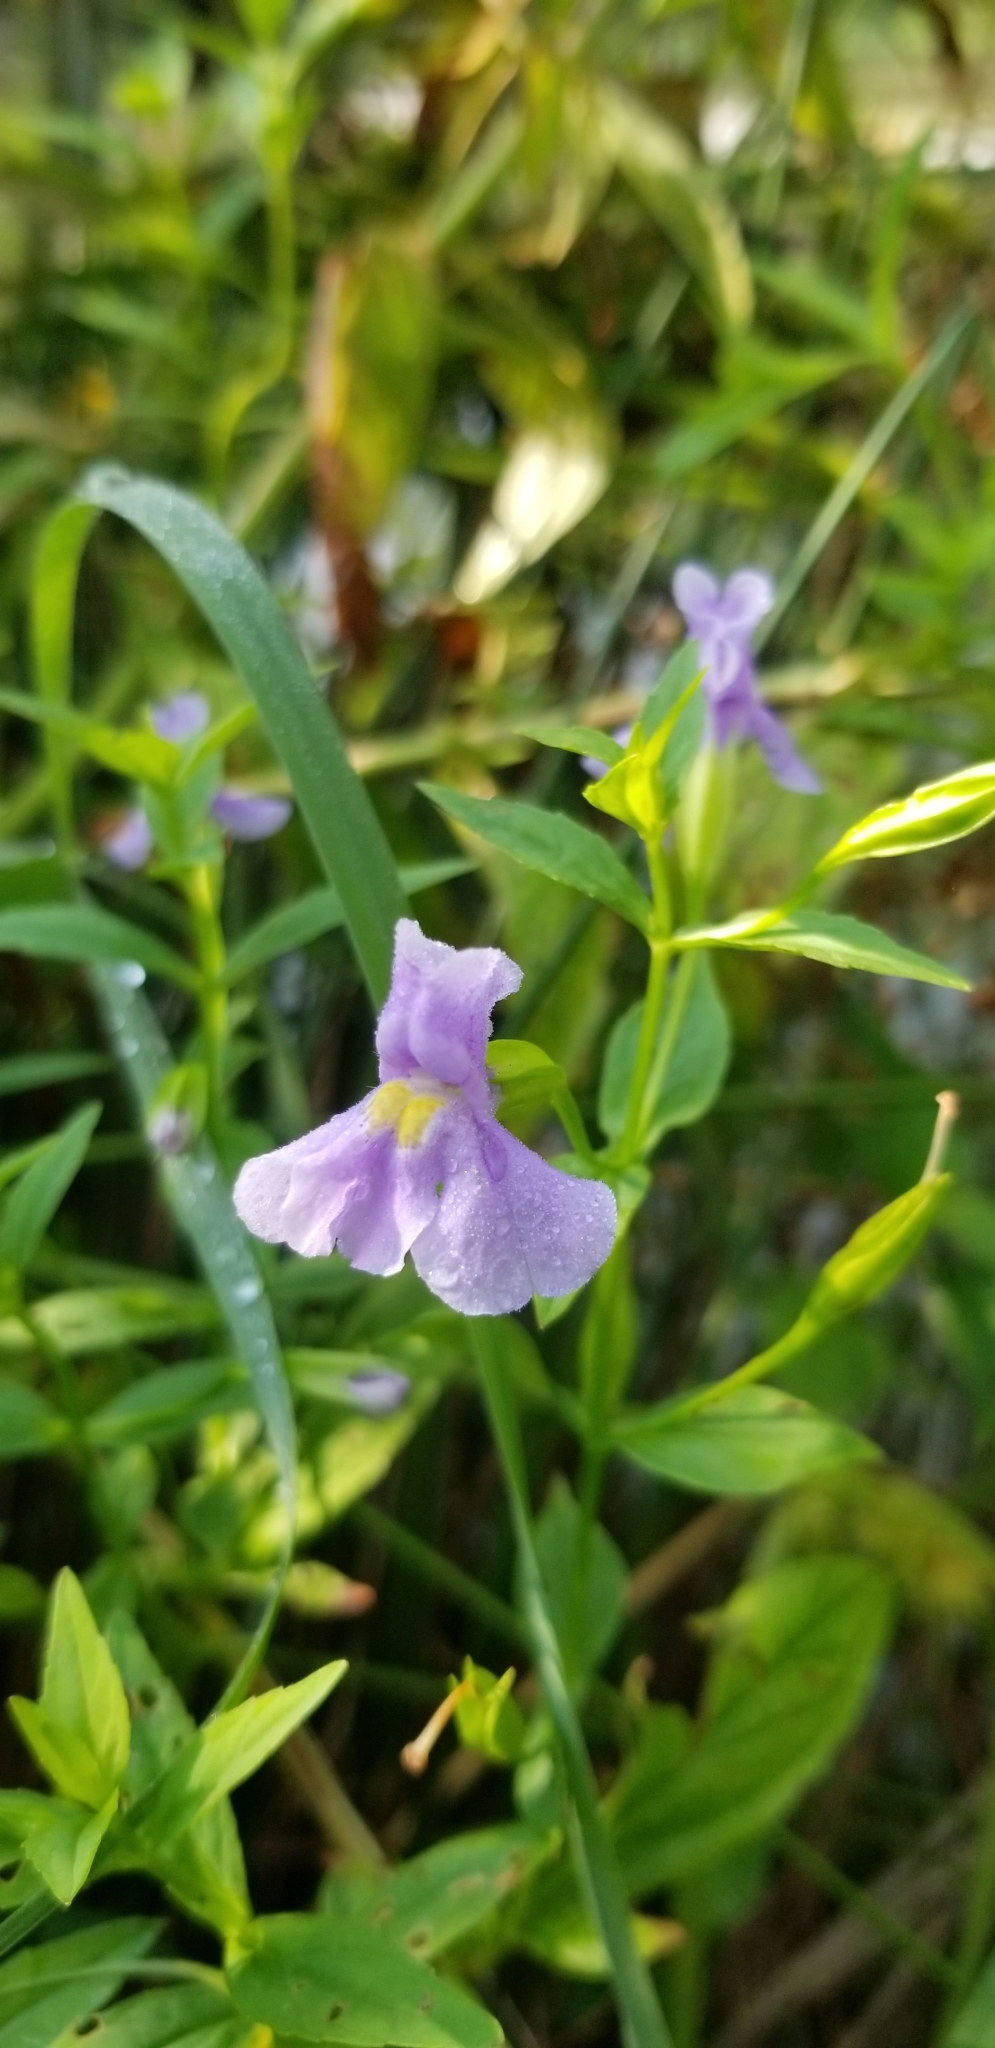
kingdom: Plantae
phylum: Tracheophyta
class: Magnoliopsida
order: Lamiales
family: Phrymaceae
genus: Mimulus
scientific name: Mimulus ringens
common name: Allegheny monkeyflower
